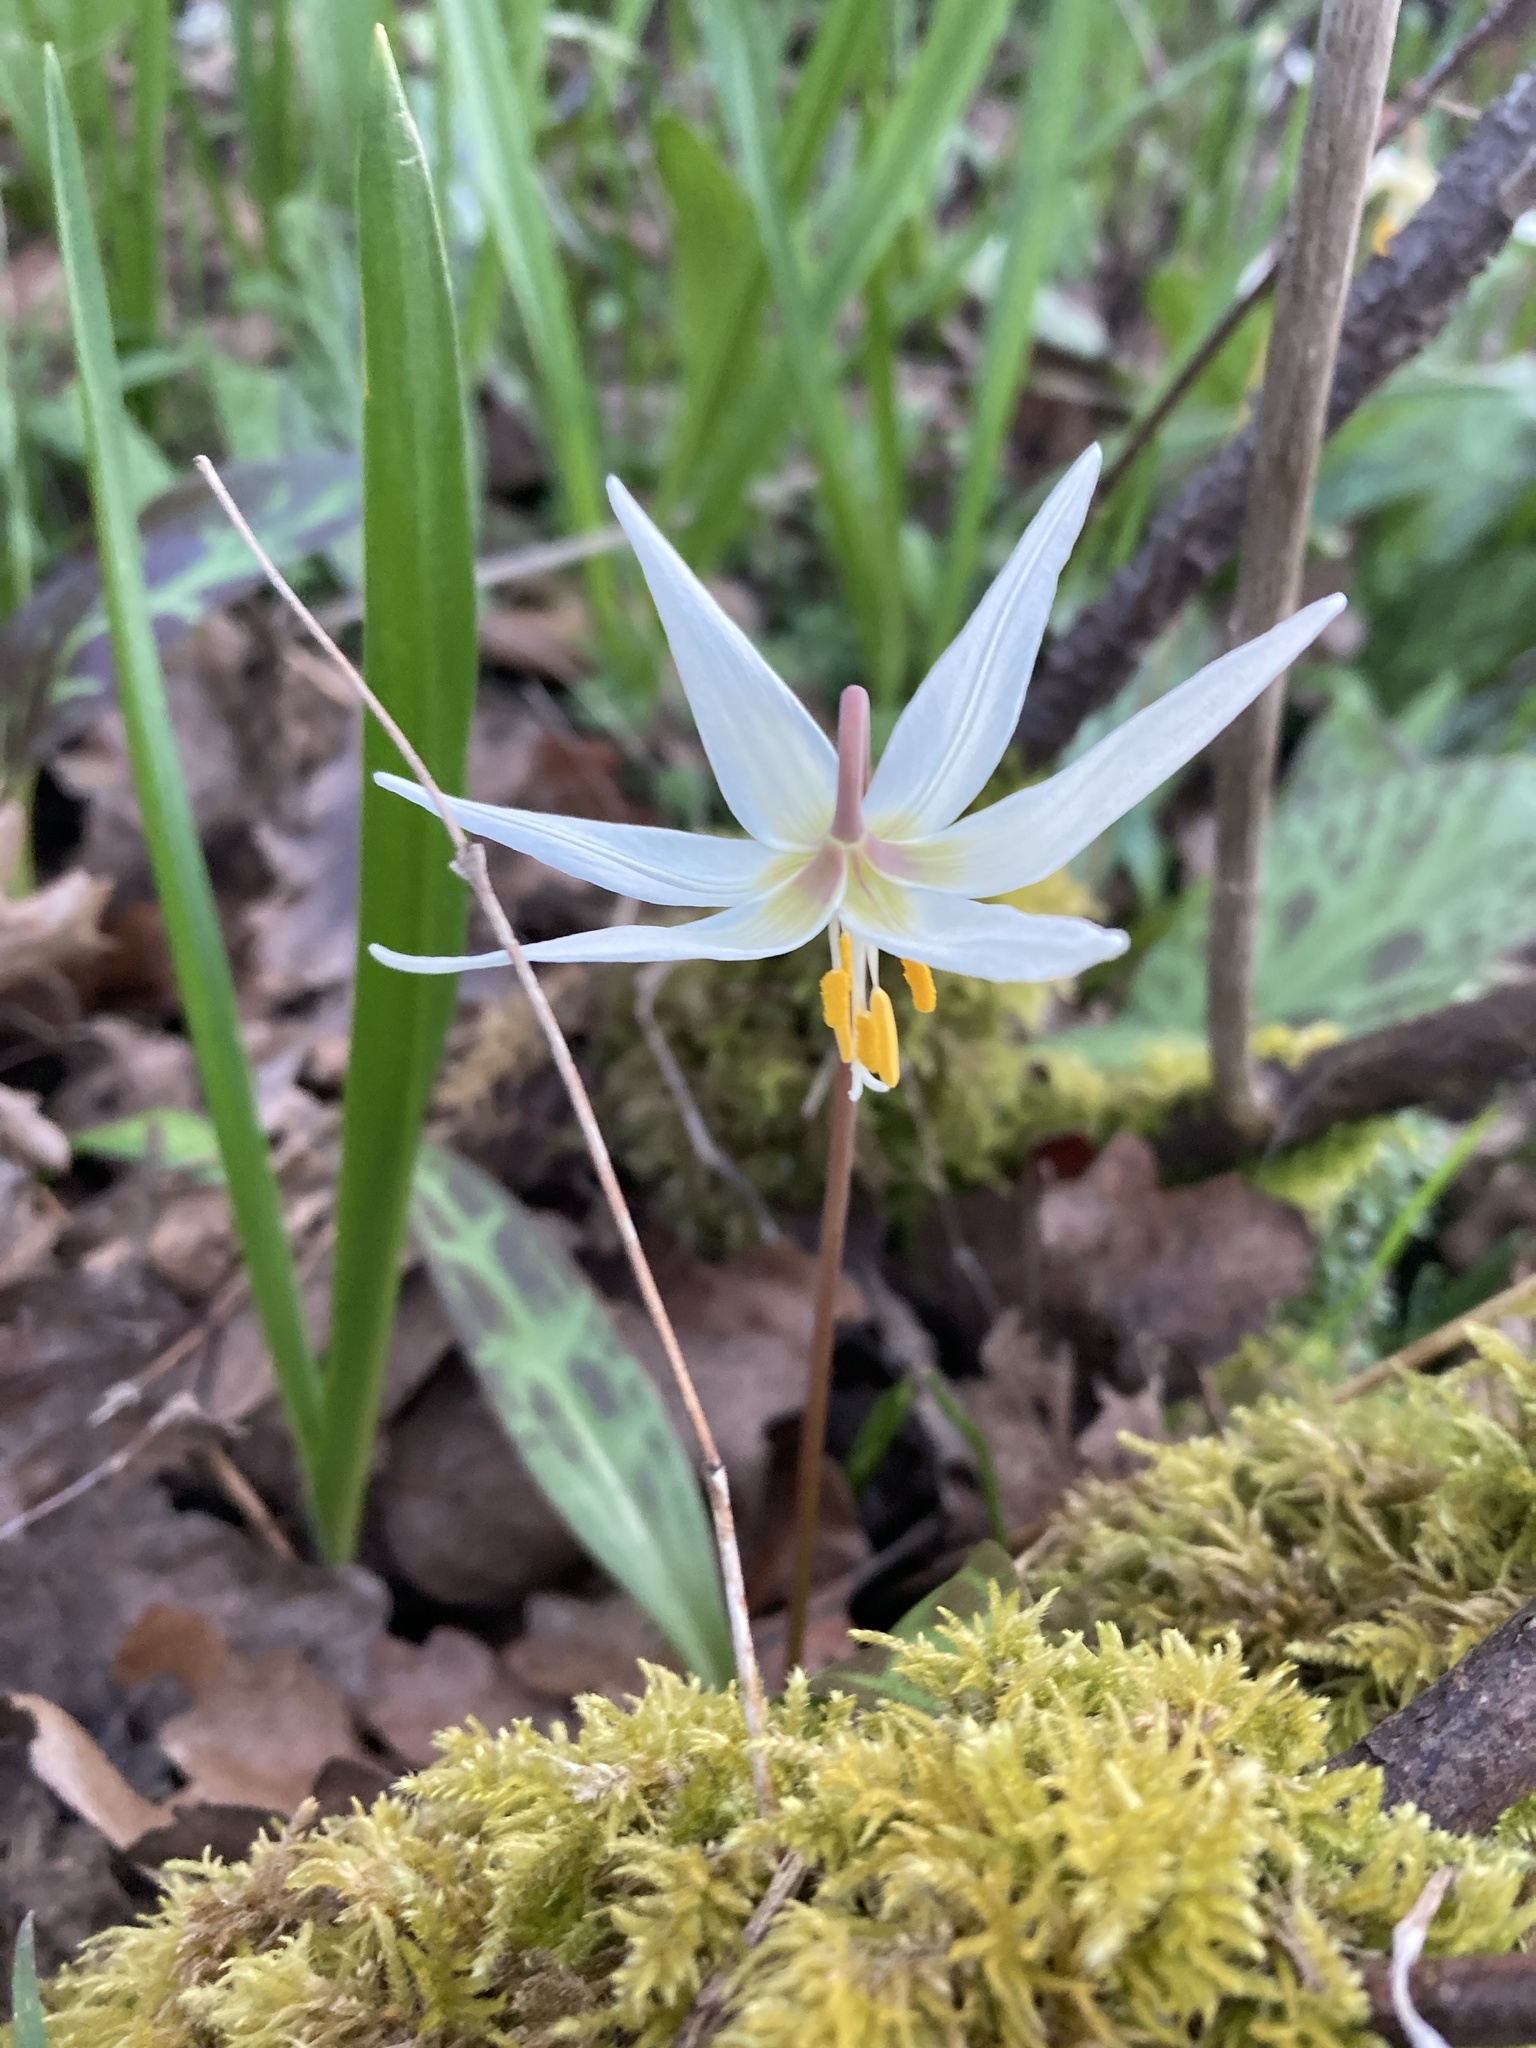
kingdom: Plantae
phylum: Tracheophyta
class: Liliopsida
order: Liliales
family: Liliaceae
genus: Erythronium
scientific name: Erythronium oregonum
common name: Giant adder's-tongue
